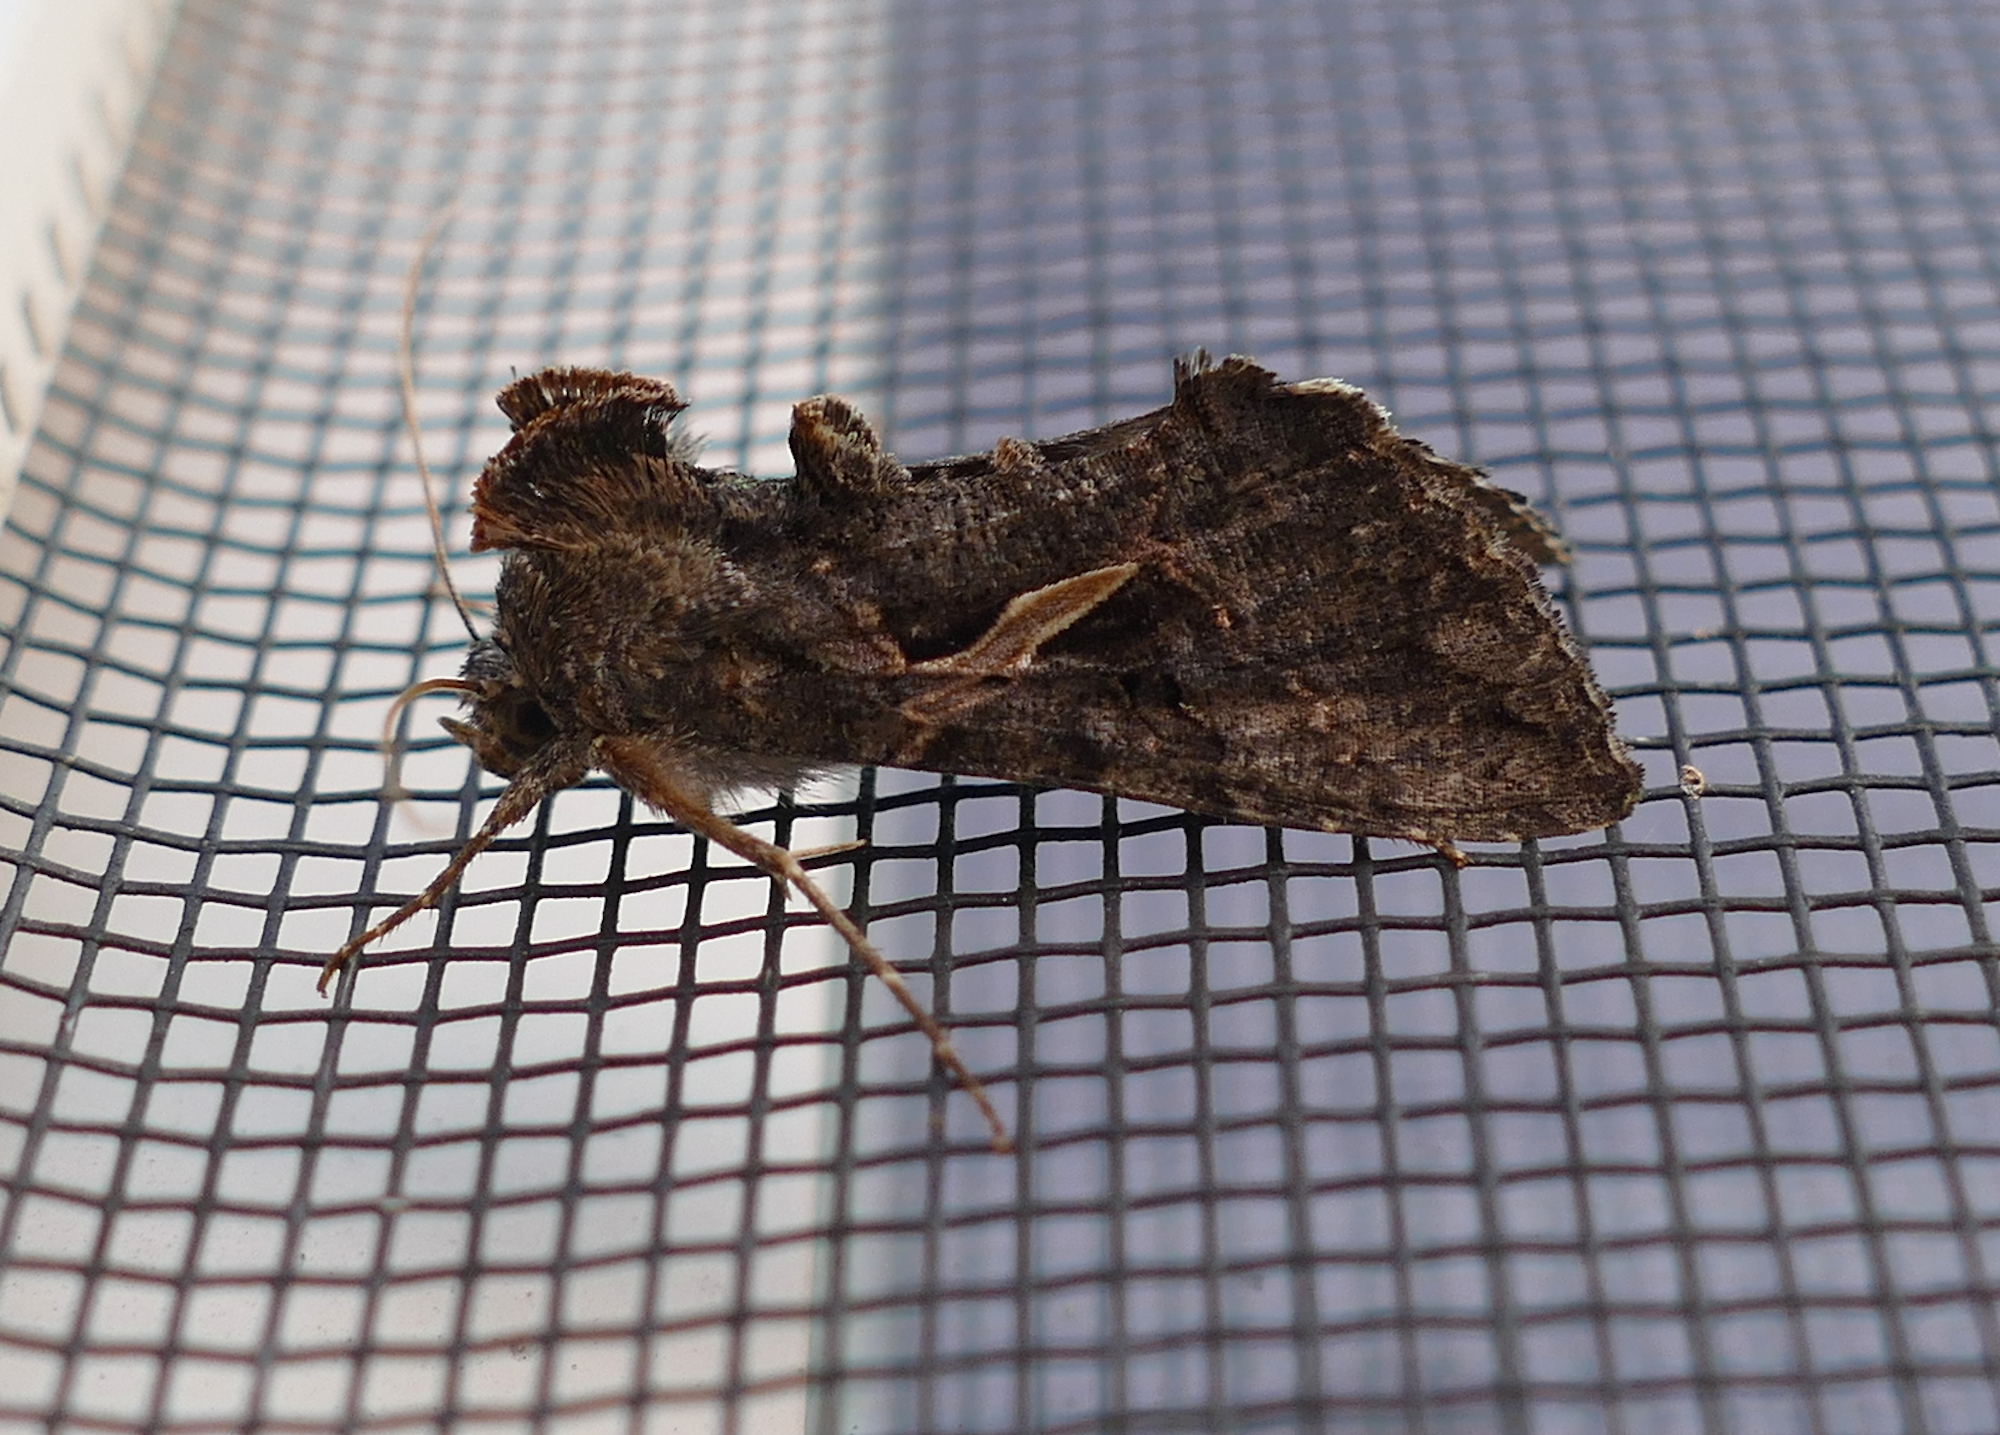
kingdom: Animalia
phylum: Arthropoda
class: Insecta
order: Lepidoptera
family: Noctuidae
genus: Ctenoplusia
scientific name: Ctenoplusia oxygramma
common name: Sharp-stigma looper moth
